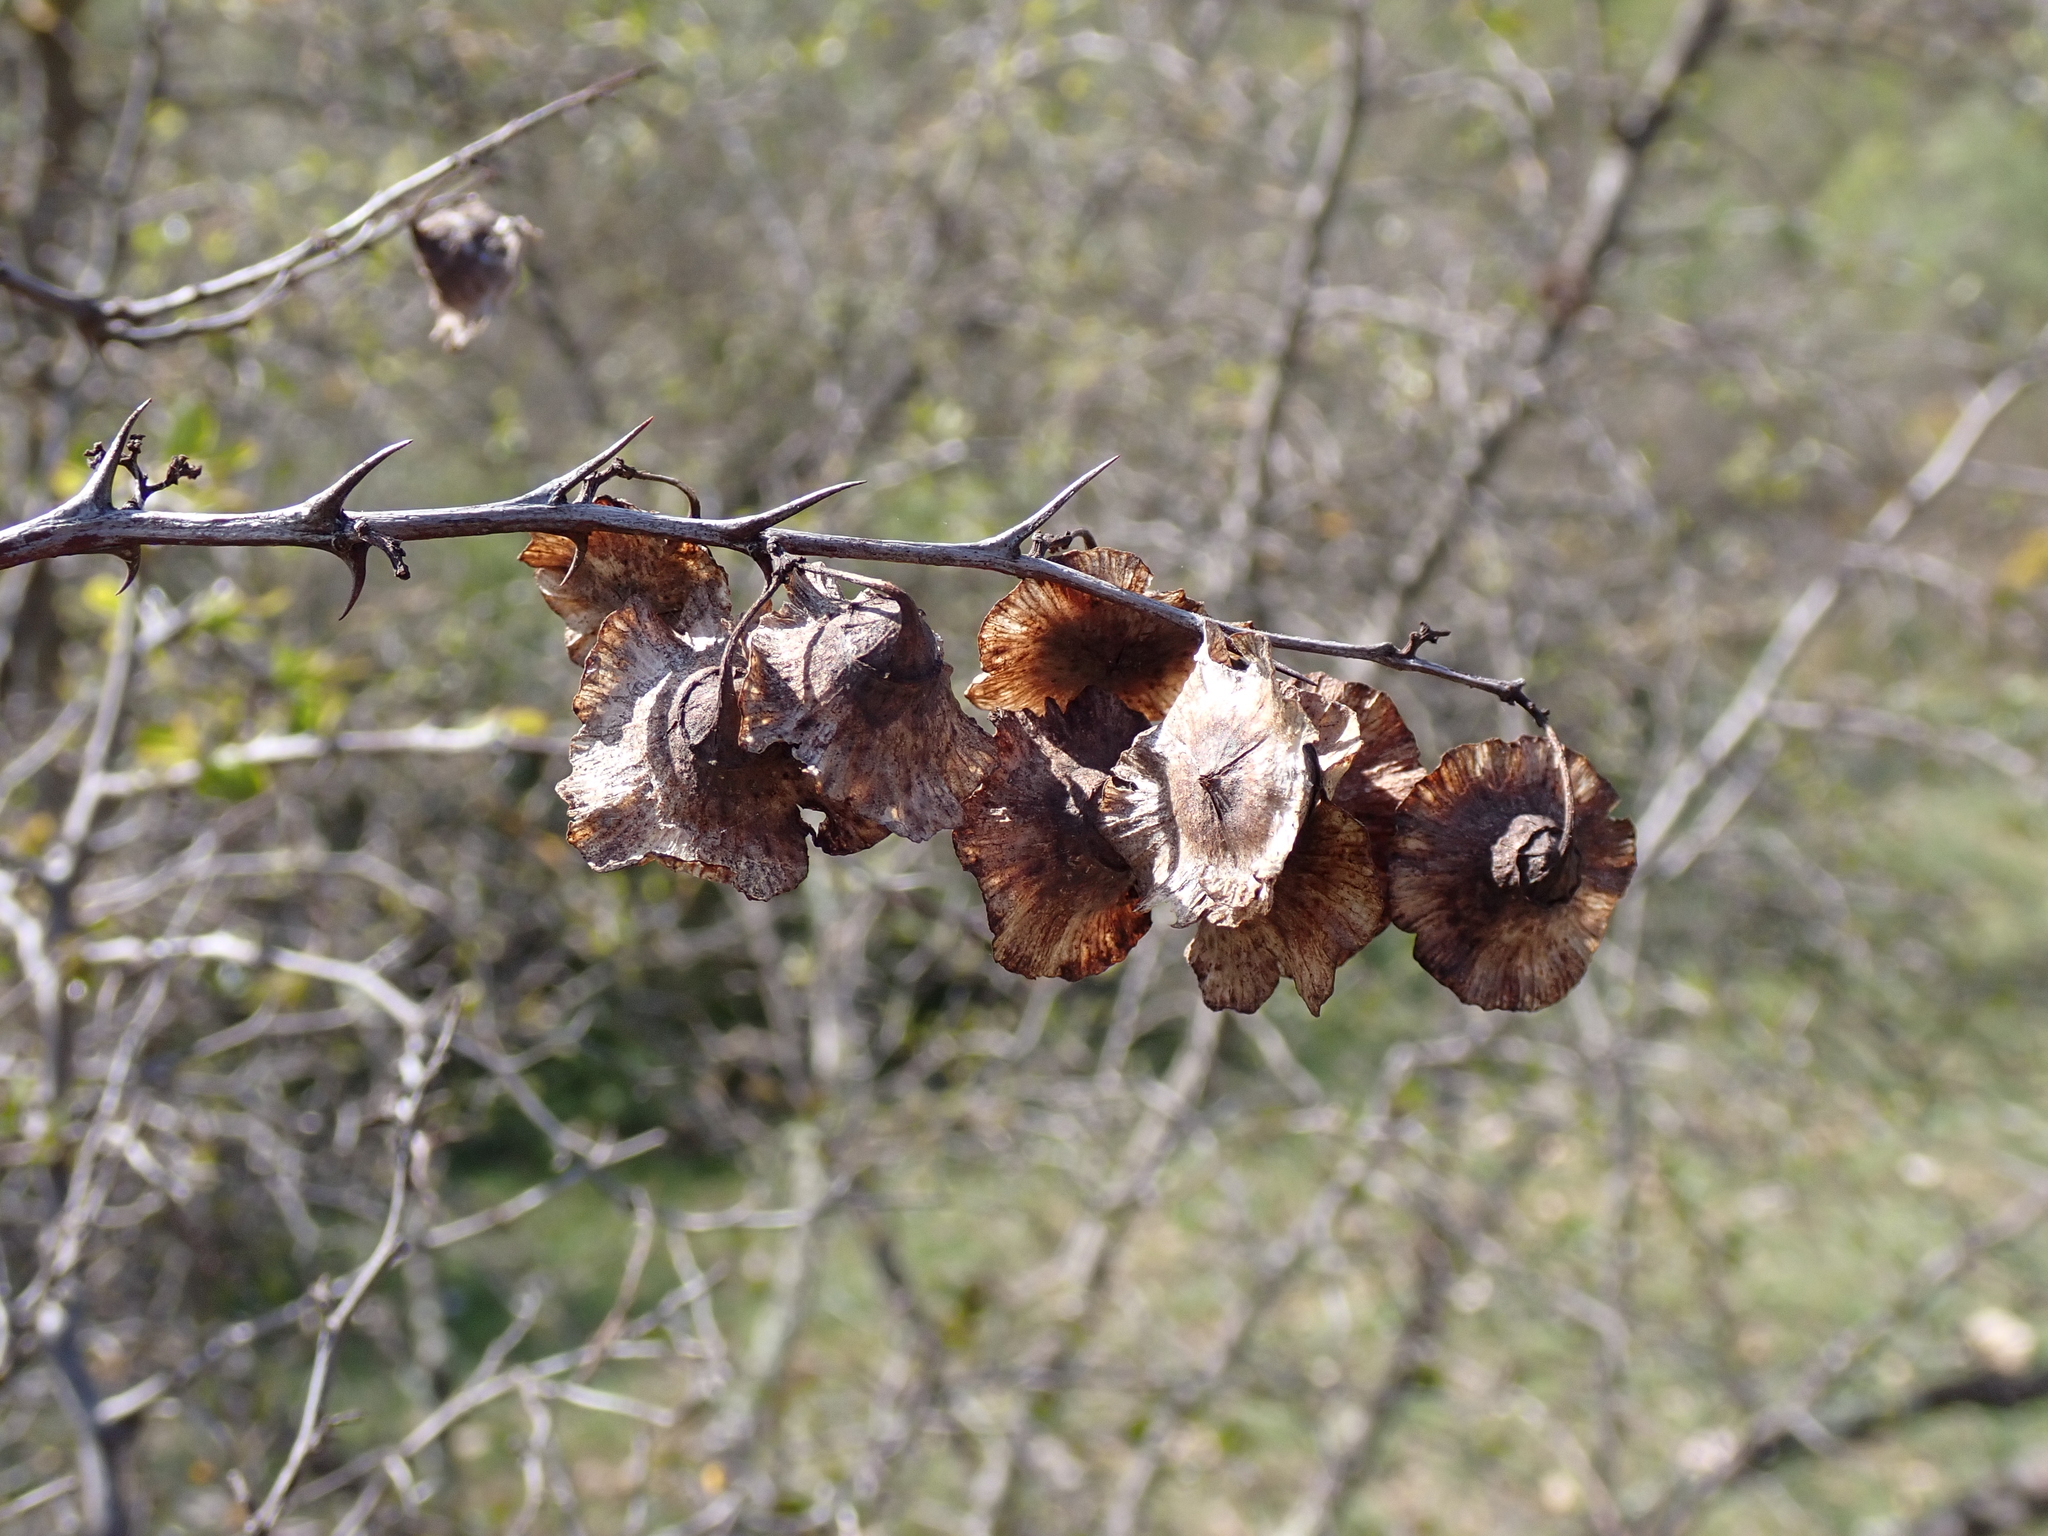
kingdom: Plantae
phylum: Tracheophyta
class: Magnoliopsida
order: Rosales
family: Rhamnaceae
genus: Paliurus
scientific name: Paliurus spina-christi
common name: Jeruselem thorn
